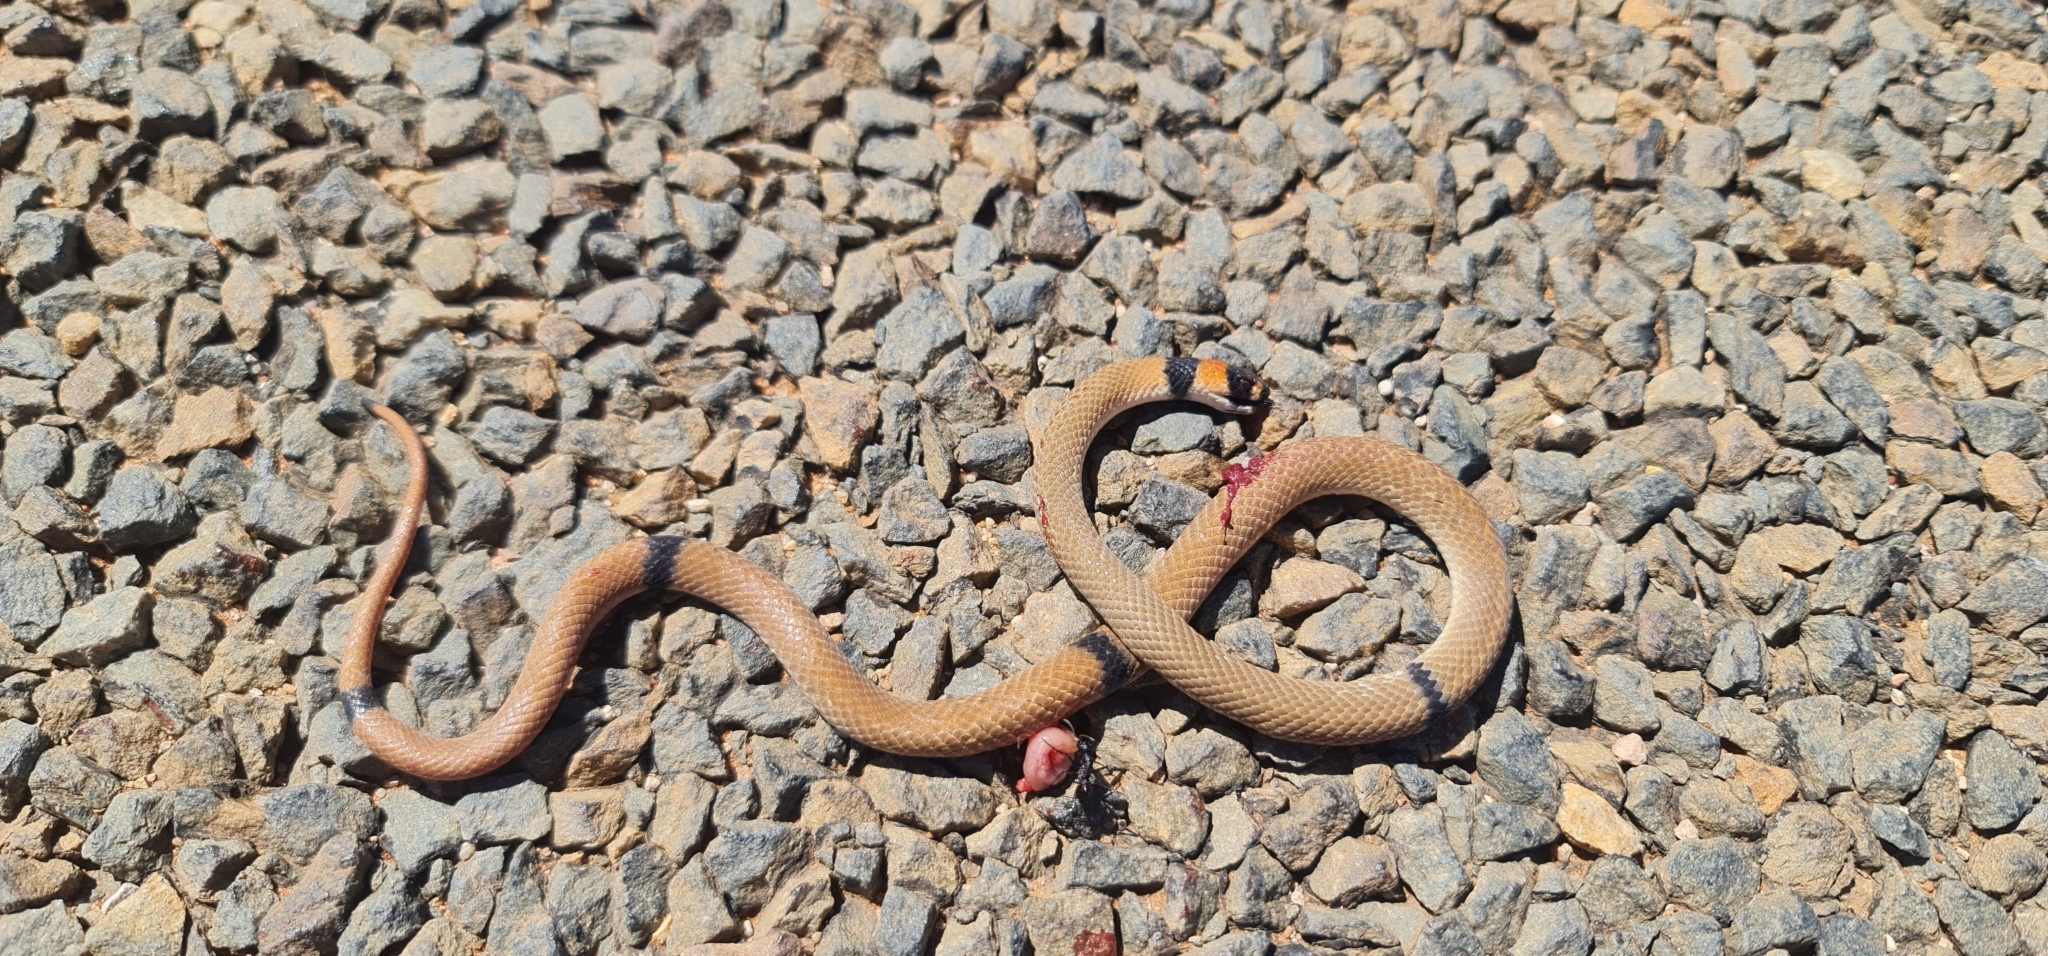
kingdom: Animalia
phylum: Chordata
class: Squamata
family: Elapidae
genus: Pseudonaja
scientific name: Pseudonaja modesta
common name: Ringed brown snake
